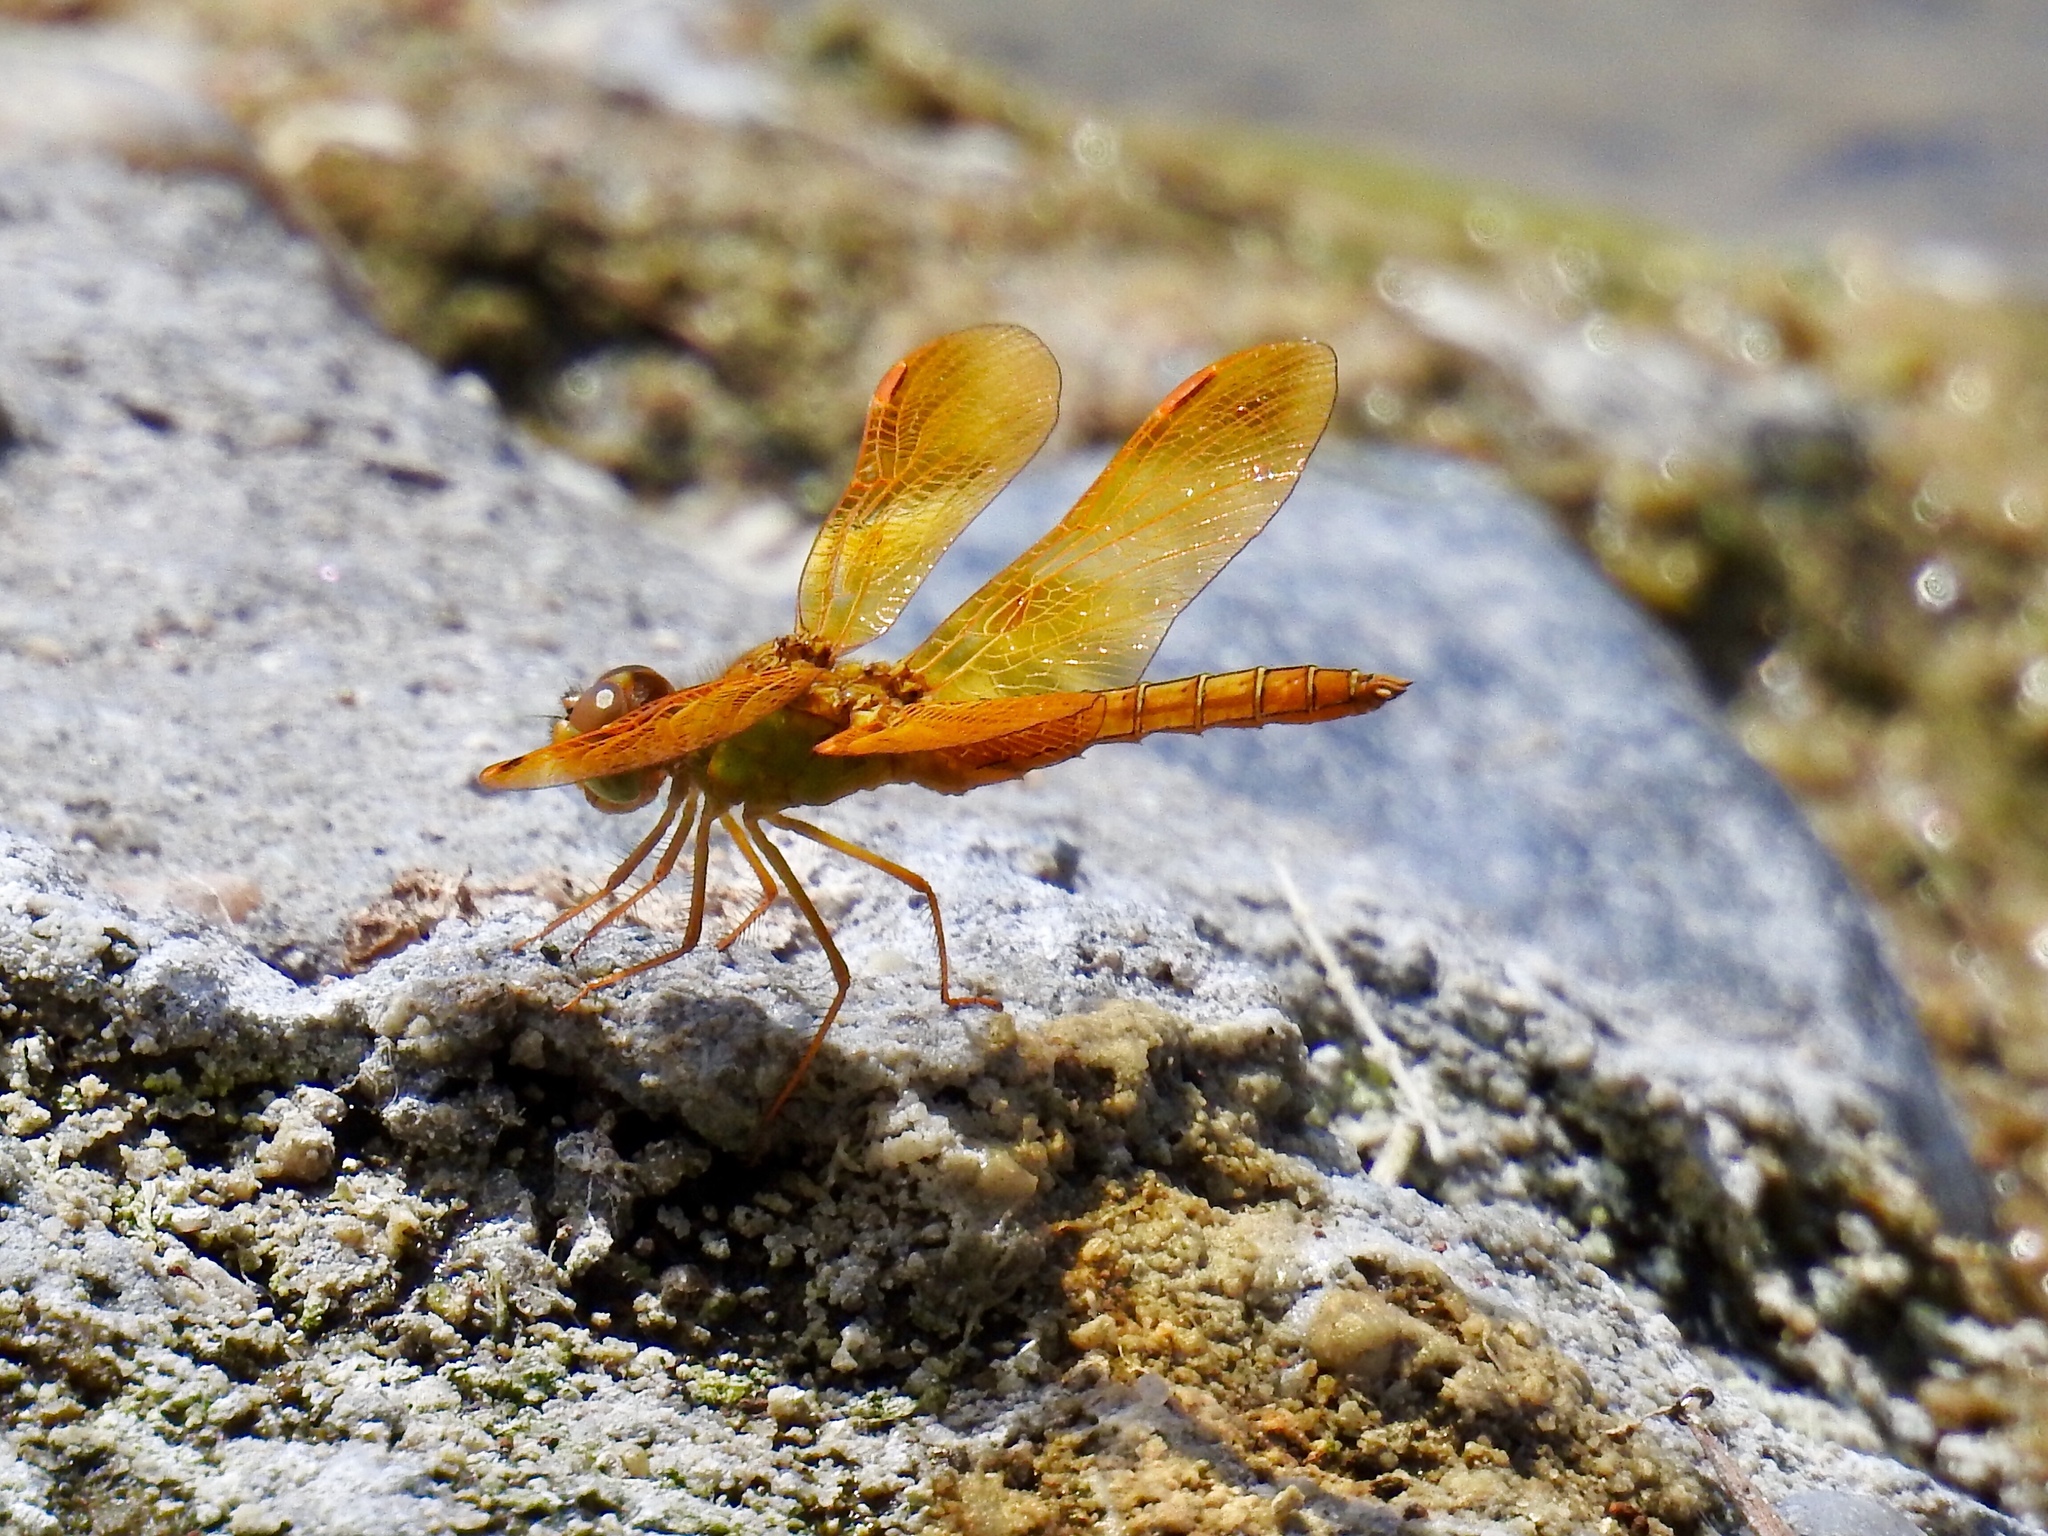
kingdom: Animalia
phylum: Arthropoda
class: Insecta
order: Odonata
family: Libellulidae
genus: Perithemis
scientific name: Perithemis intensa
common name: Mexican amberwing
